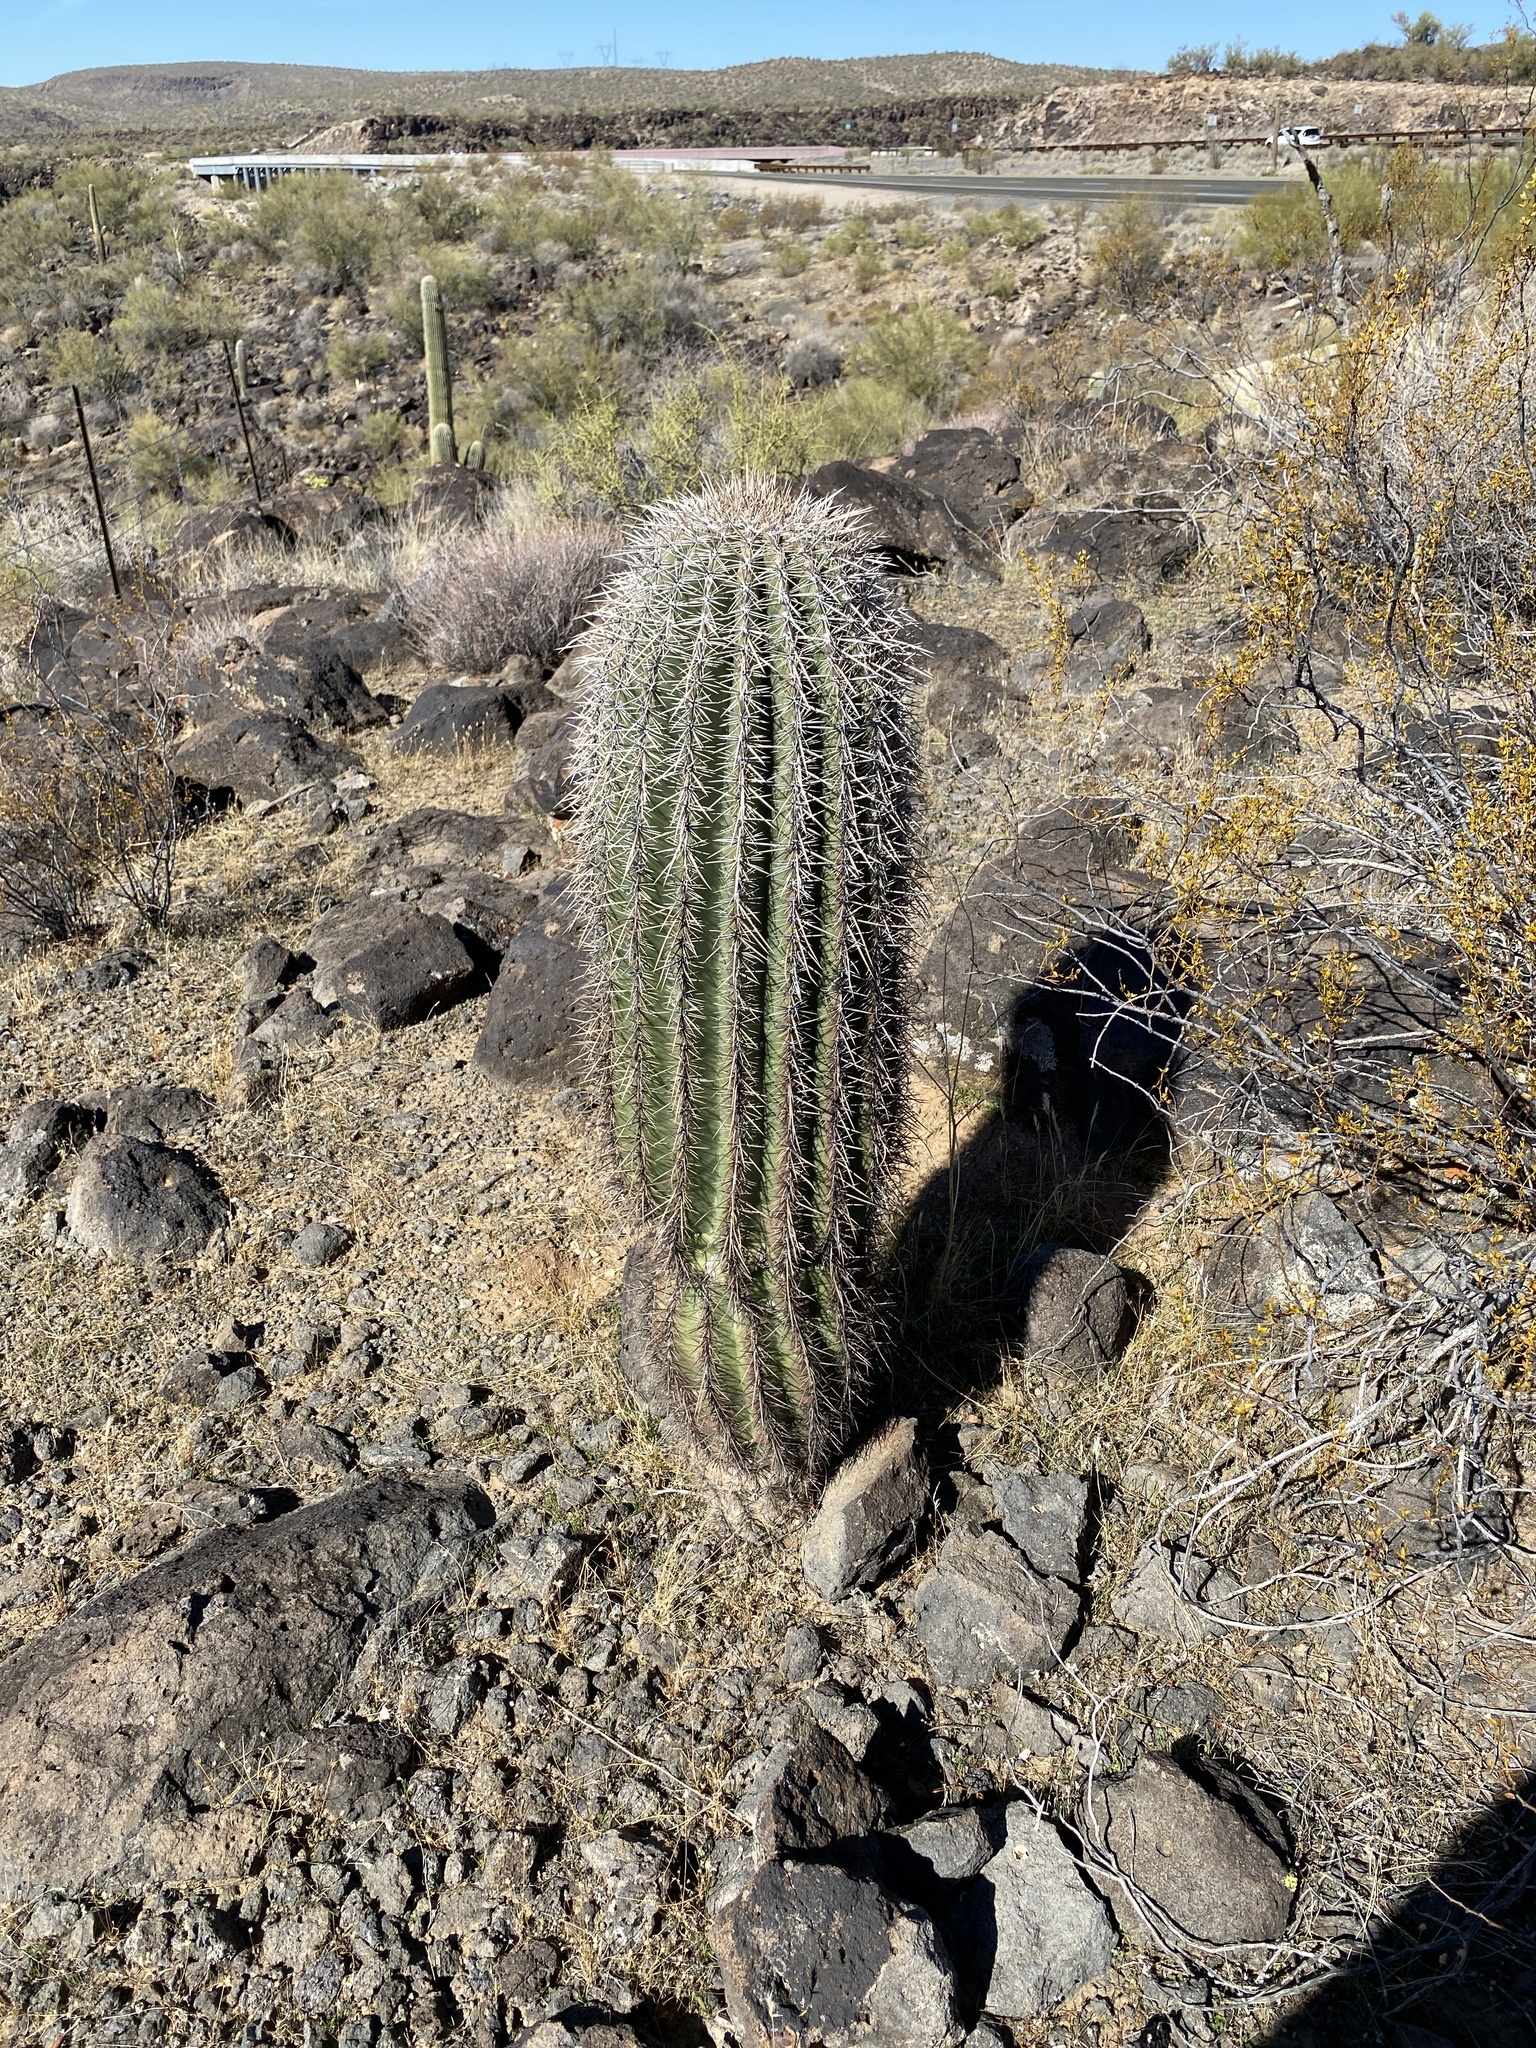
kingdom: Plantae
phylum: Tracheophyta
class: Magnoliopsida
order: Caryophyllales
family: Cactaceae
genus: Carnegiea
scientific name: Carnegiea gigantea
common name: Saguaro
